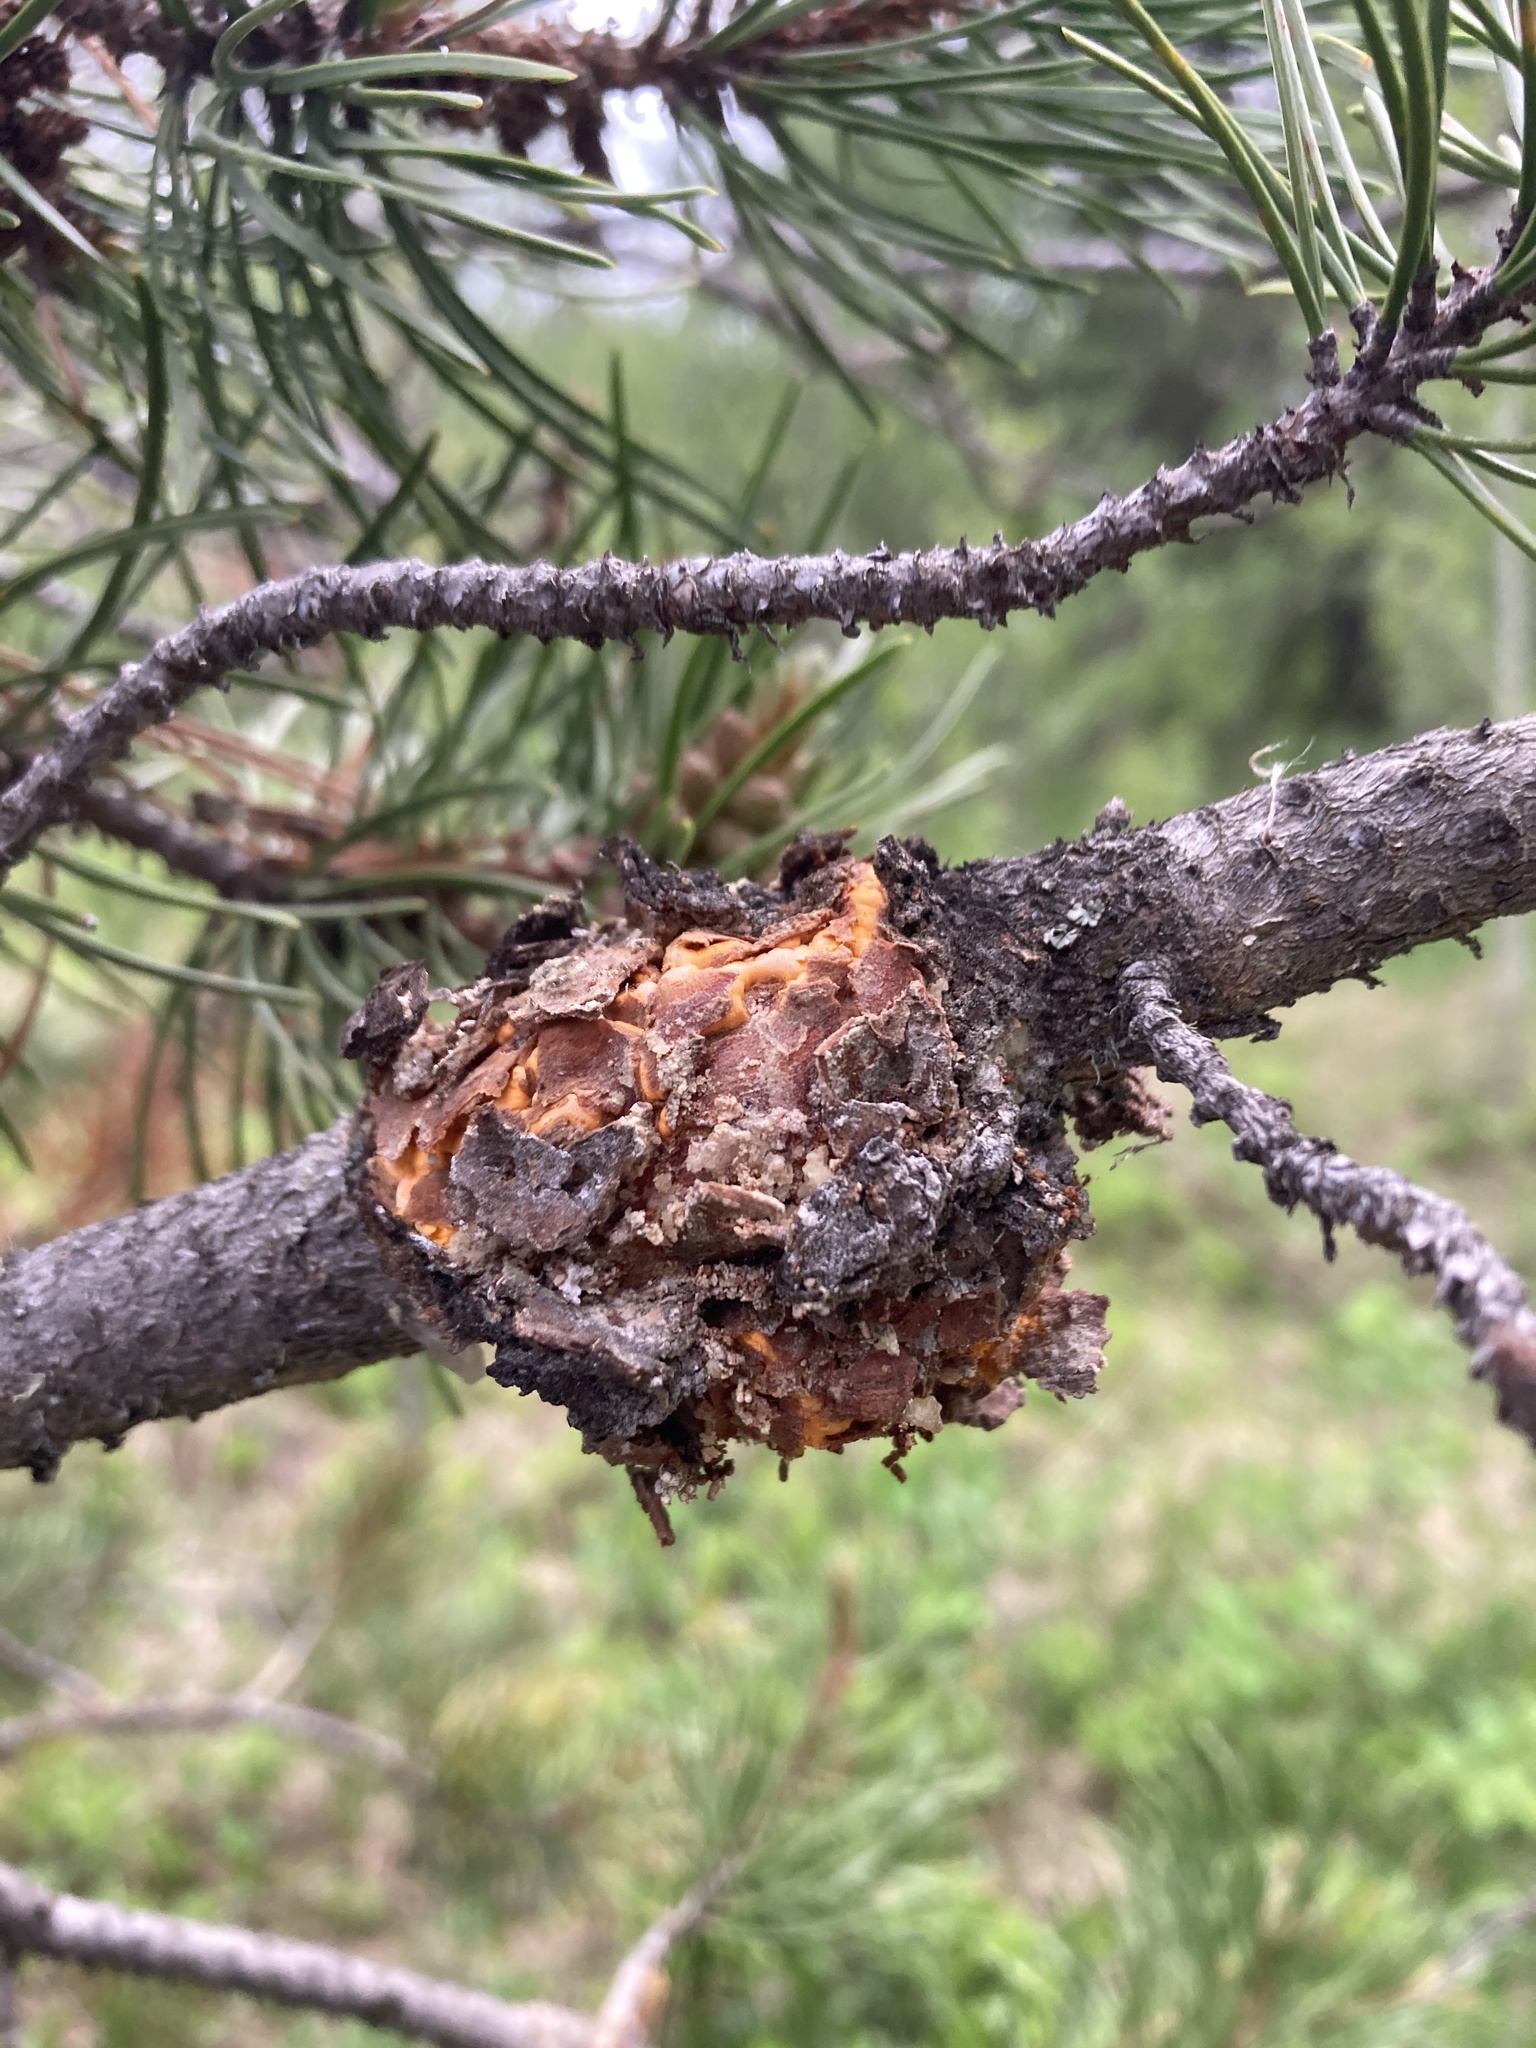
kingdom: Fungi
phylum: Basidiomycota
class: Pucciniomycetes
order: Pucciniales
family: Cronartiaceae
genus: Cronartium
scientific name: Cronartium harknessii
